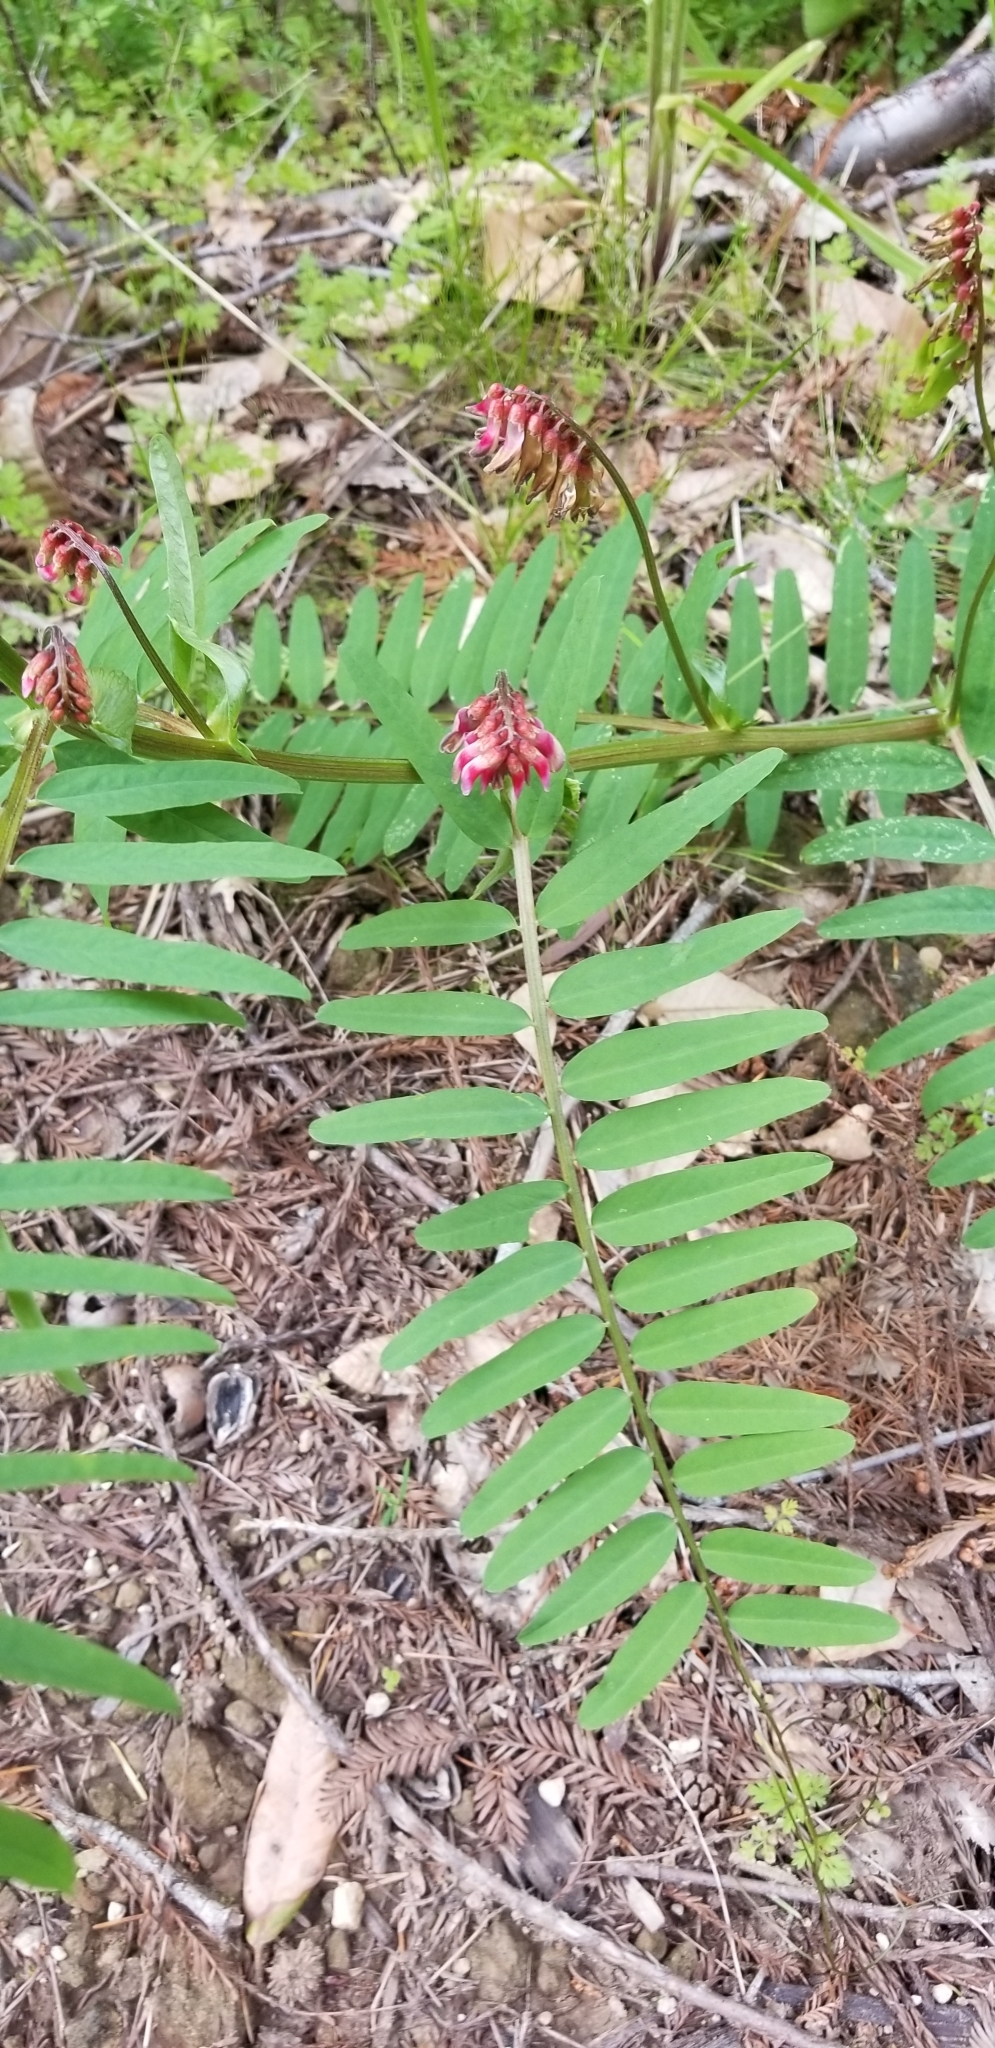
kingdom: Plantae
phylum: Tracheophyta
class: Magnoliopsida
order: Fabales
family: Fabaceae
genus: Vicia
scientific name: Vicia
